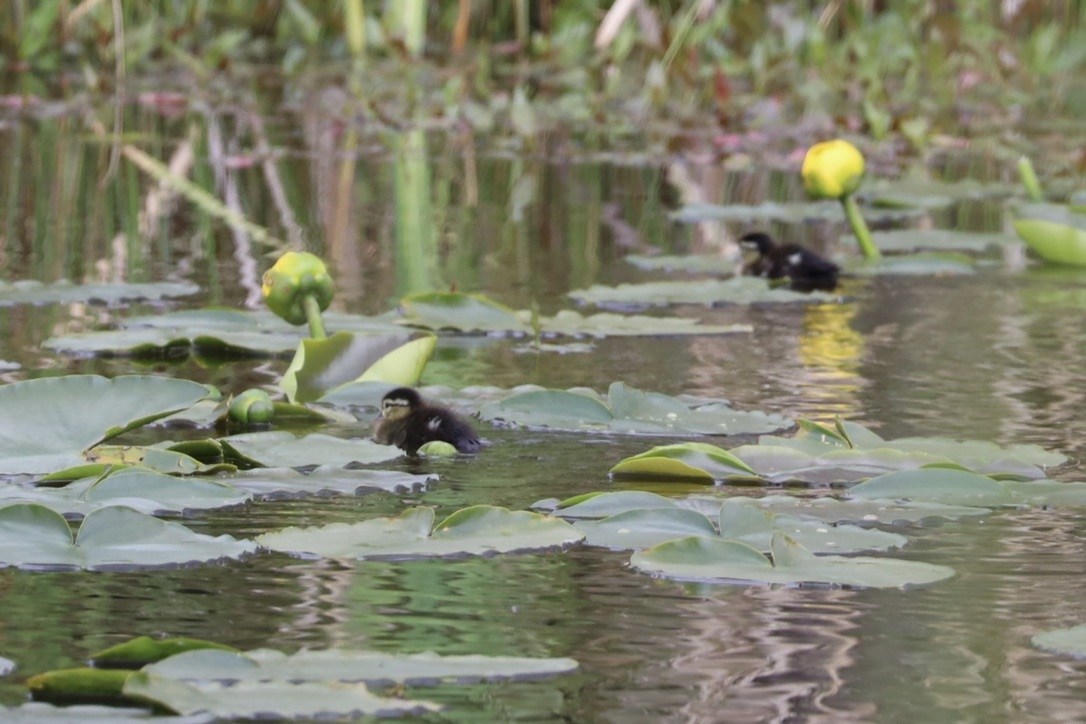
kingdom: Animalia
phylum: Chordata
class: Aves
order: Anseriformes
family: Anatidae
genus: Aix
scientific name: Aix sponsa
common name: Wood duck
